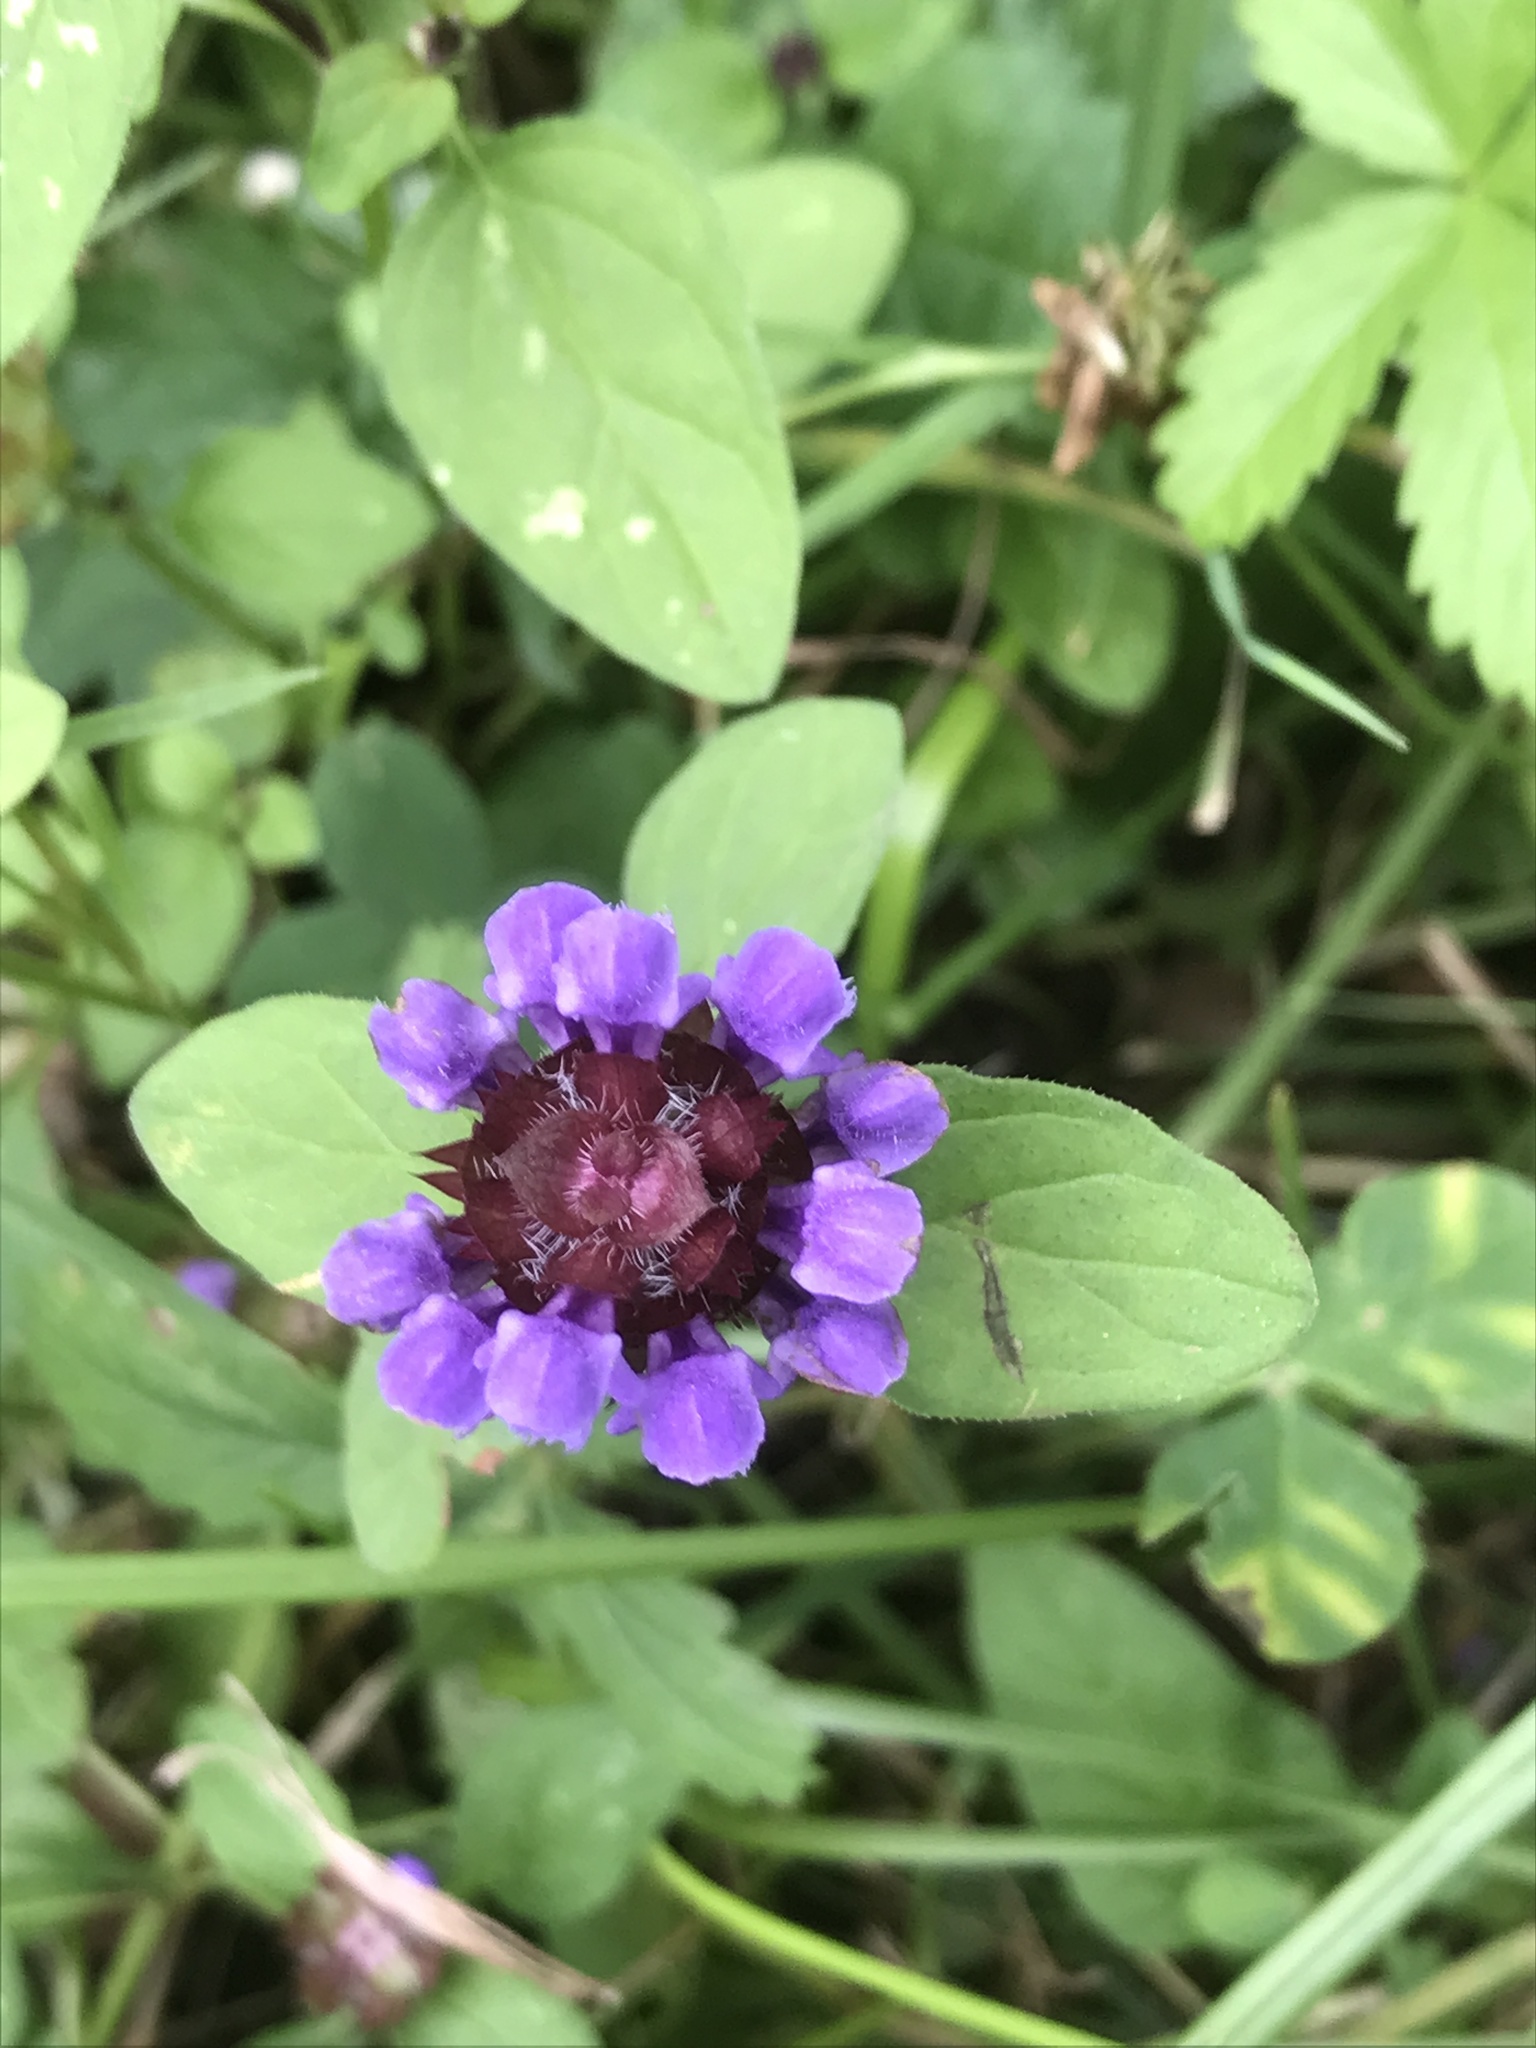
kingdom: Plantae
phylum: Tracheophyta
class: Magnoliopsida
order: Lamiales
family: Lamiaceae
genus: Prunella
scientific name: Prunella vulgaris
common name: Heal-all
